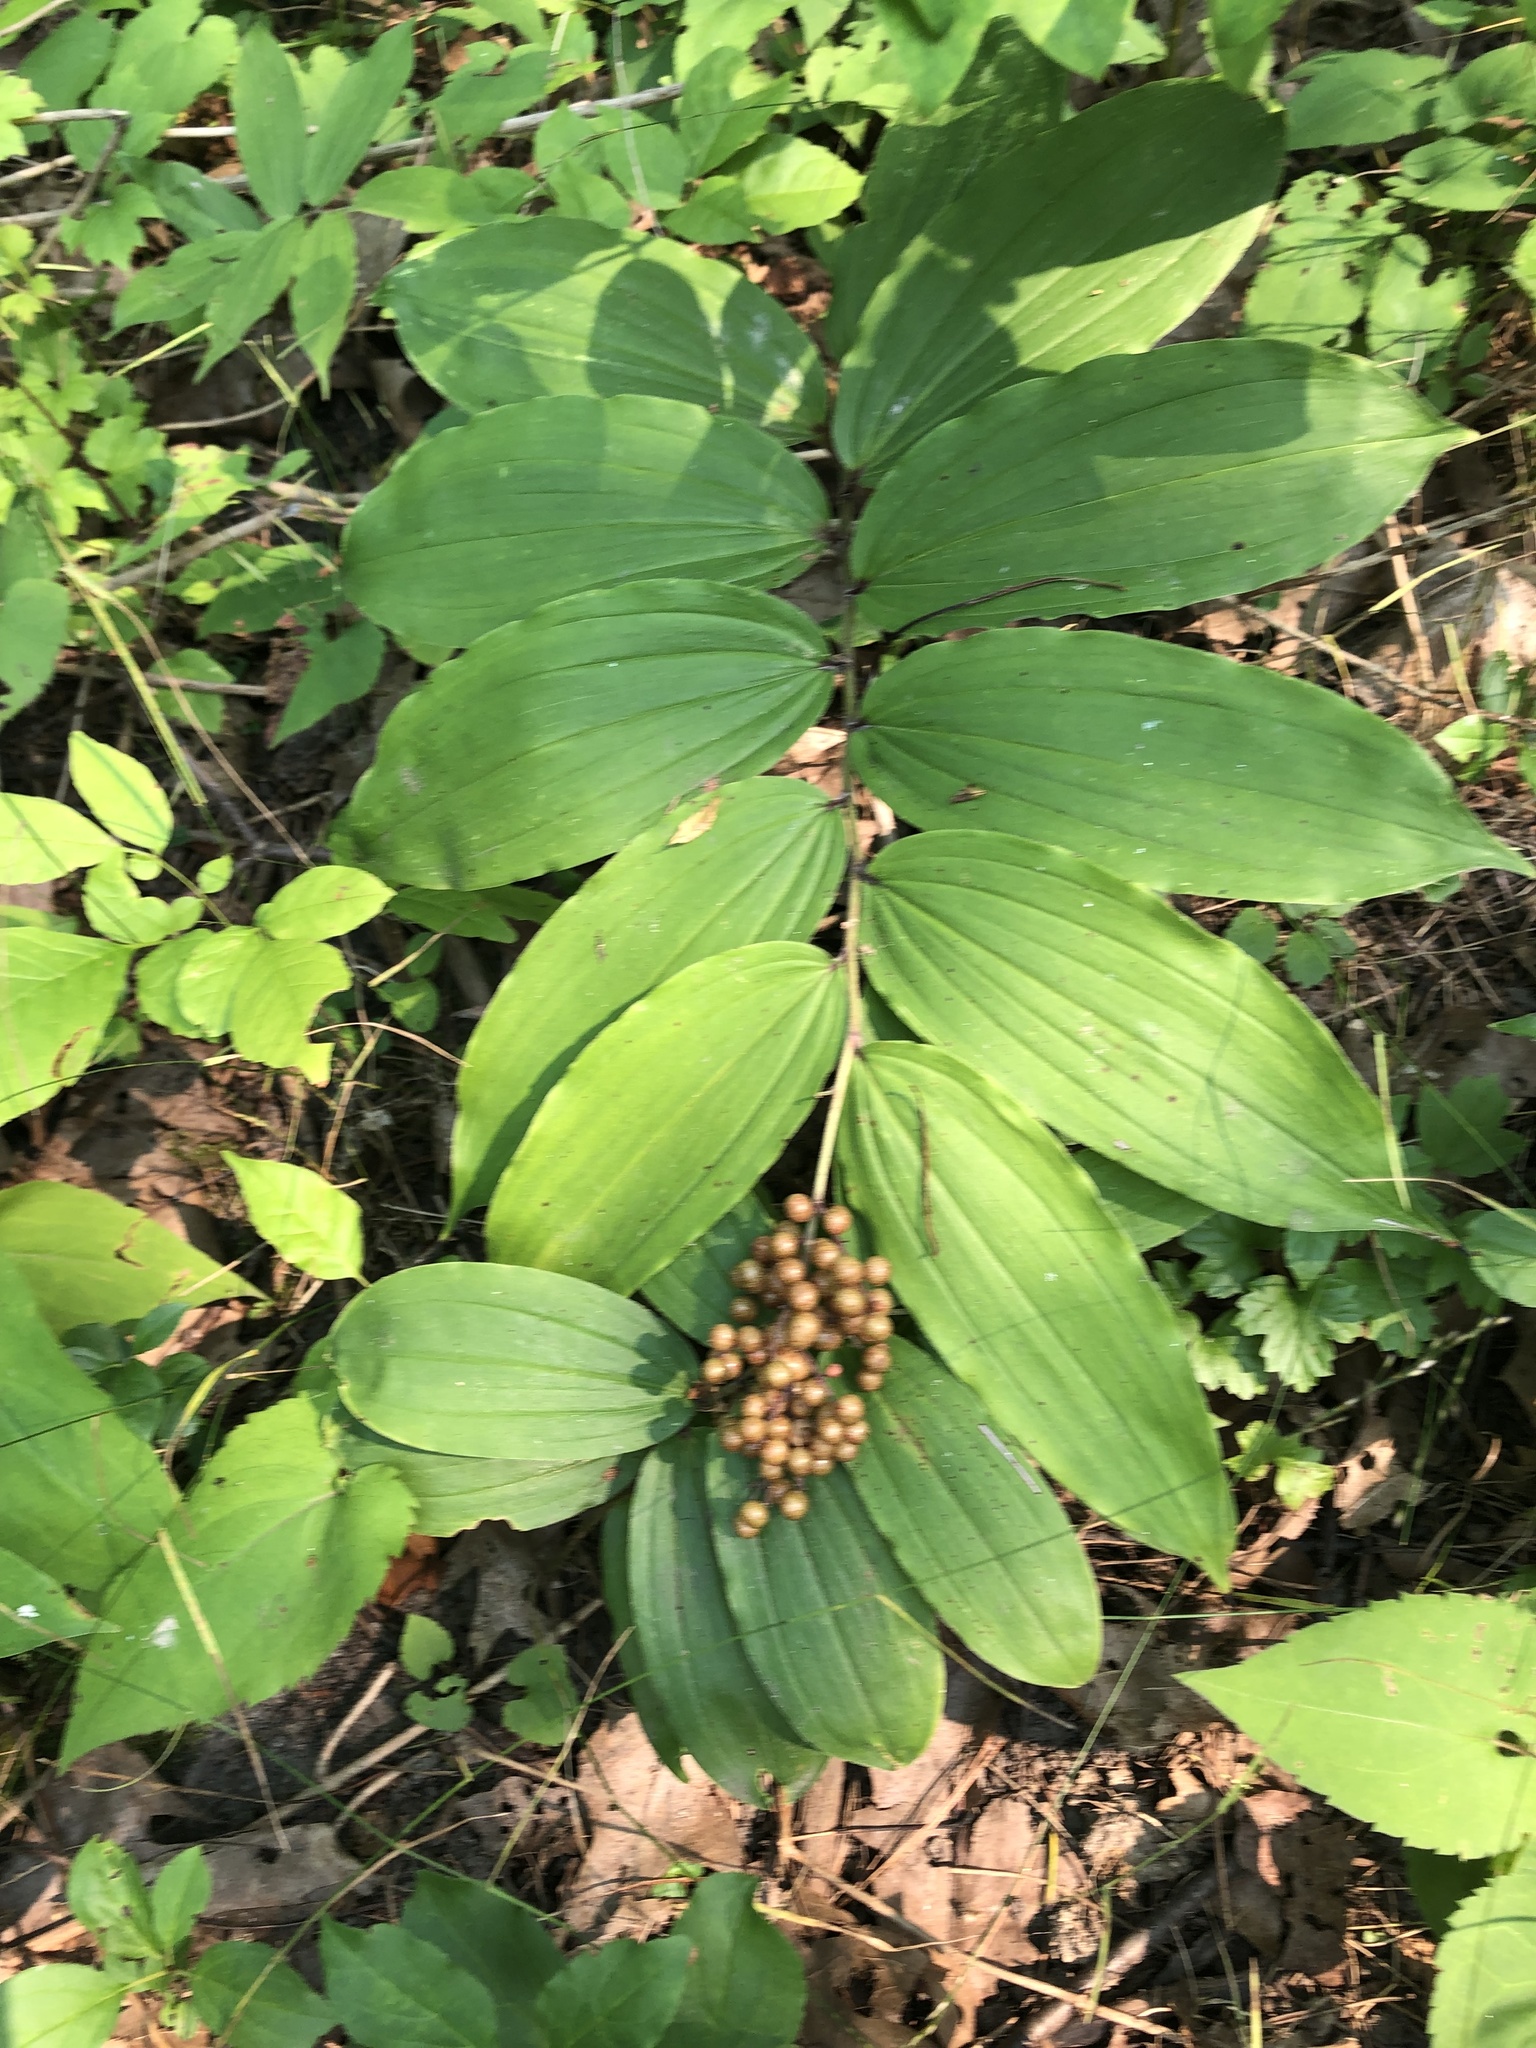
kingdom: Plantae
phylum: Tracheophyta
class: Liliopsida
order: Asparagales
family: Asparagaceae
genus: Maianthemum
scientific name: Maianthemum racemosum
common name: False spikenard
